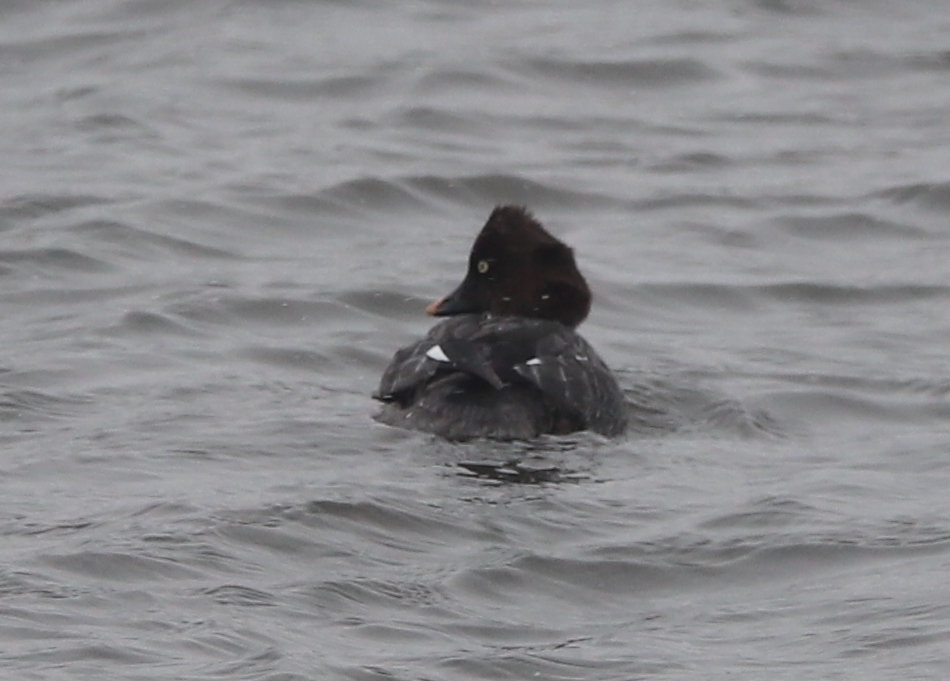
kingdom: Animalia
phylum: Chordata
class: Aves
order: Anseriformes
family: Anatidae
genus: Bucephala
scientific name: Bucephala clangula
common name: Common goldeneye
